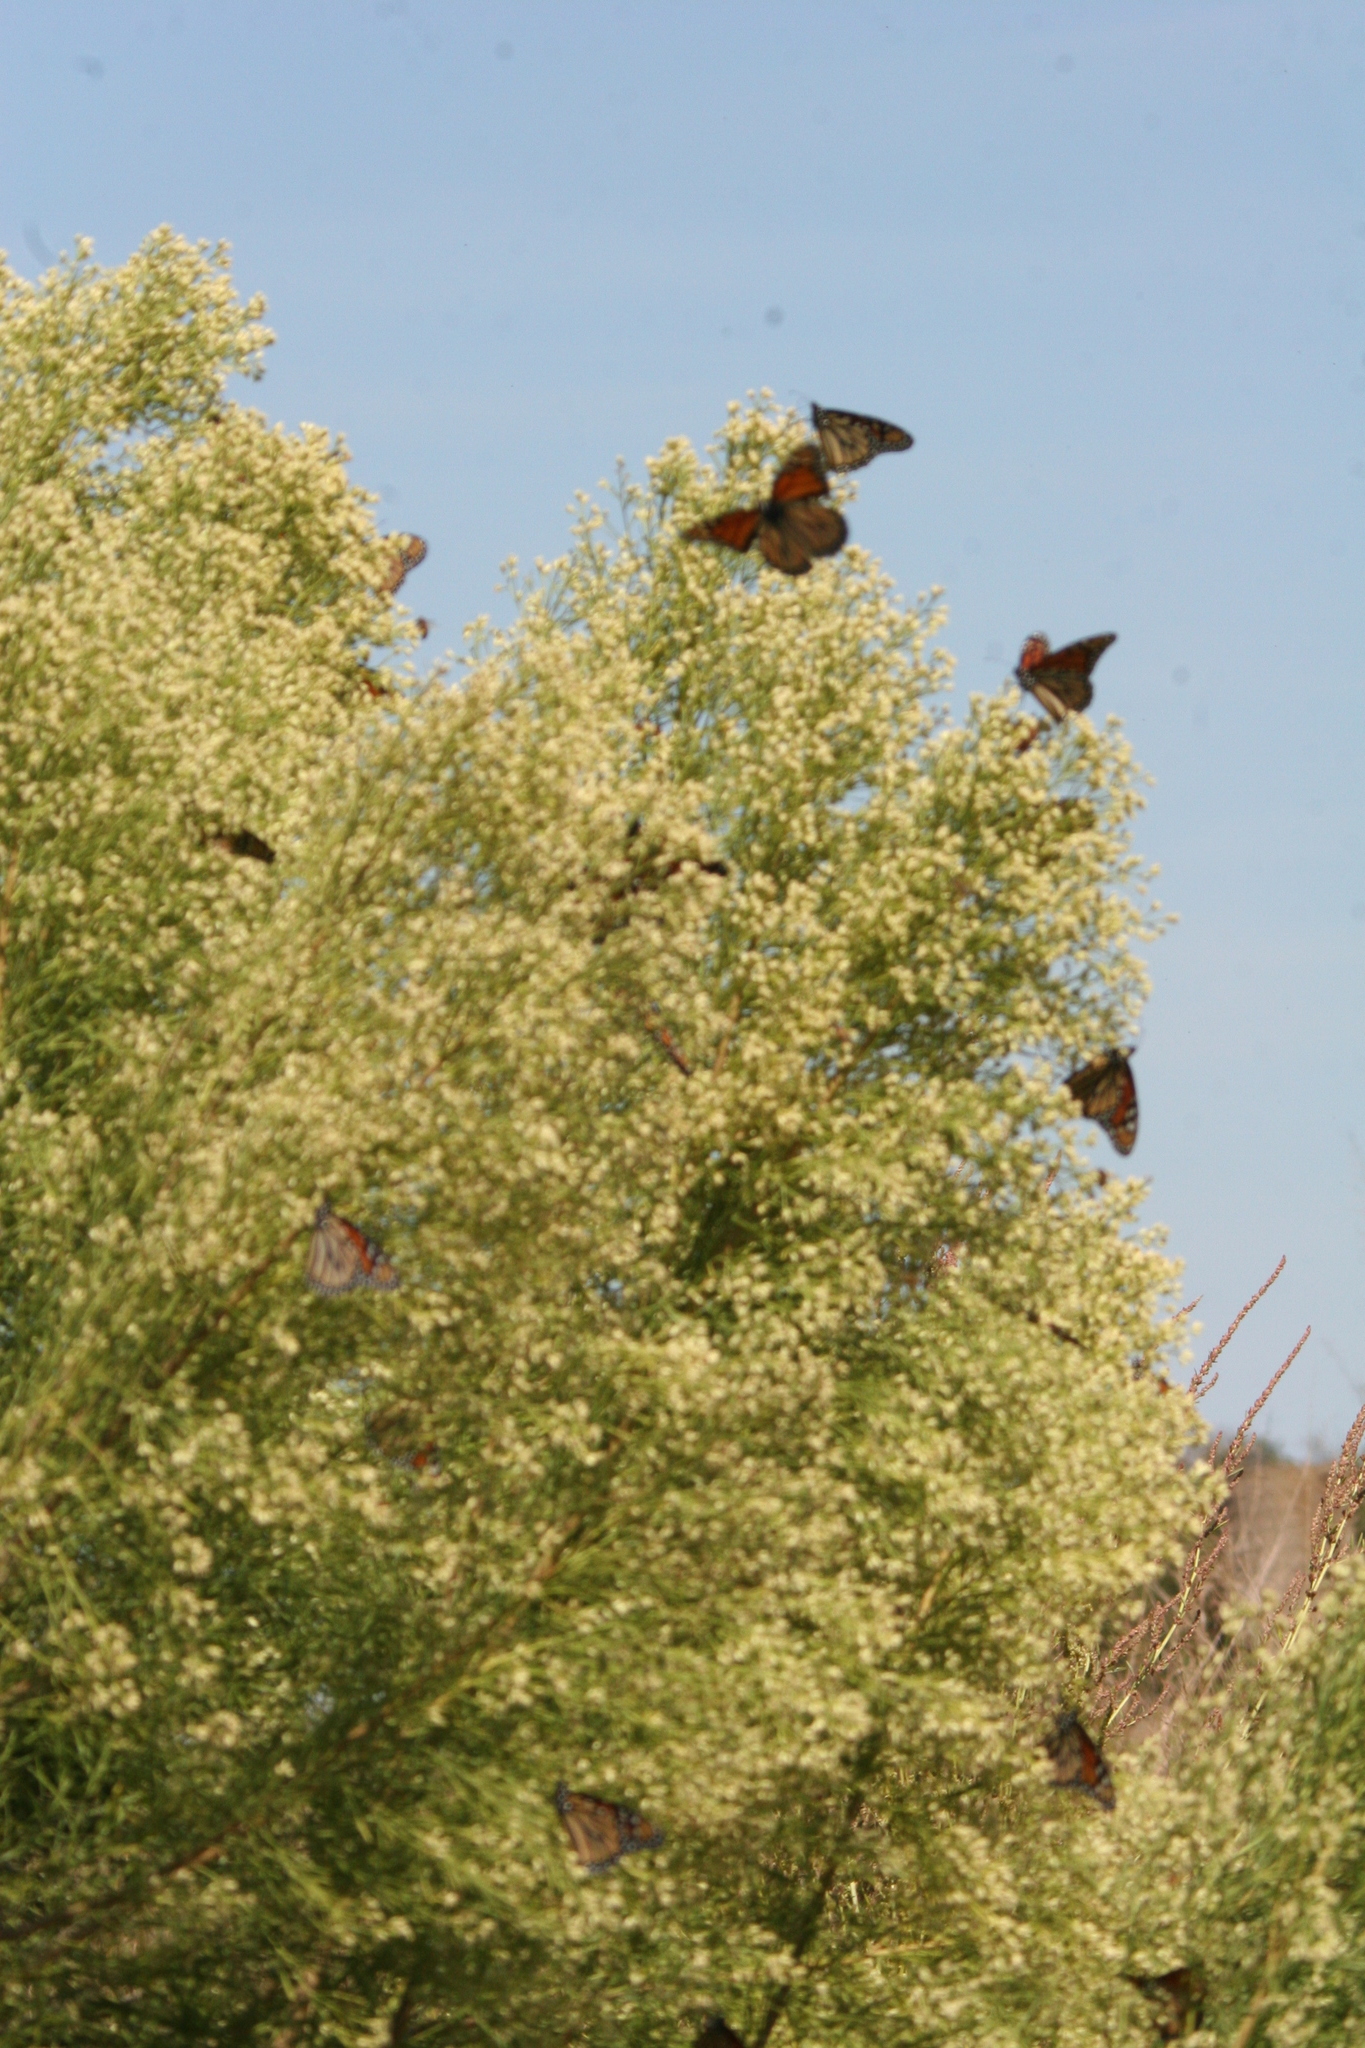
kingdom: Plantae
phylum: Tracheophyta
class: Magnoliopsida
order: Asterales
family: Asteraceae
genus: Baccharis
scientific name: Baccharis neglecta
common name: Roosevelt-weed
